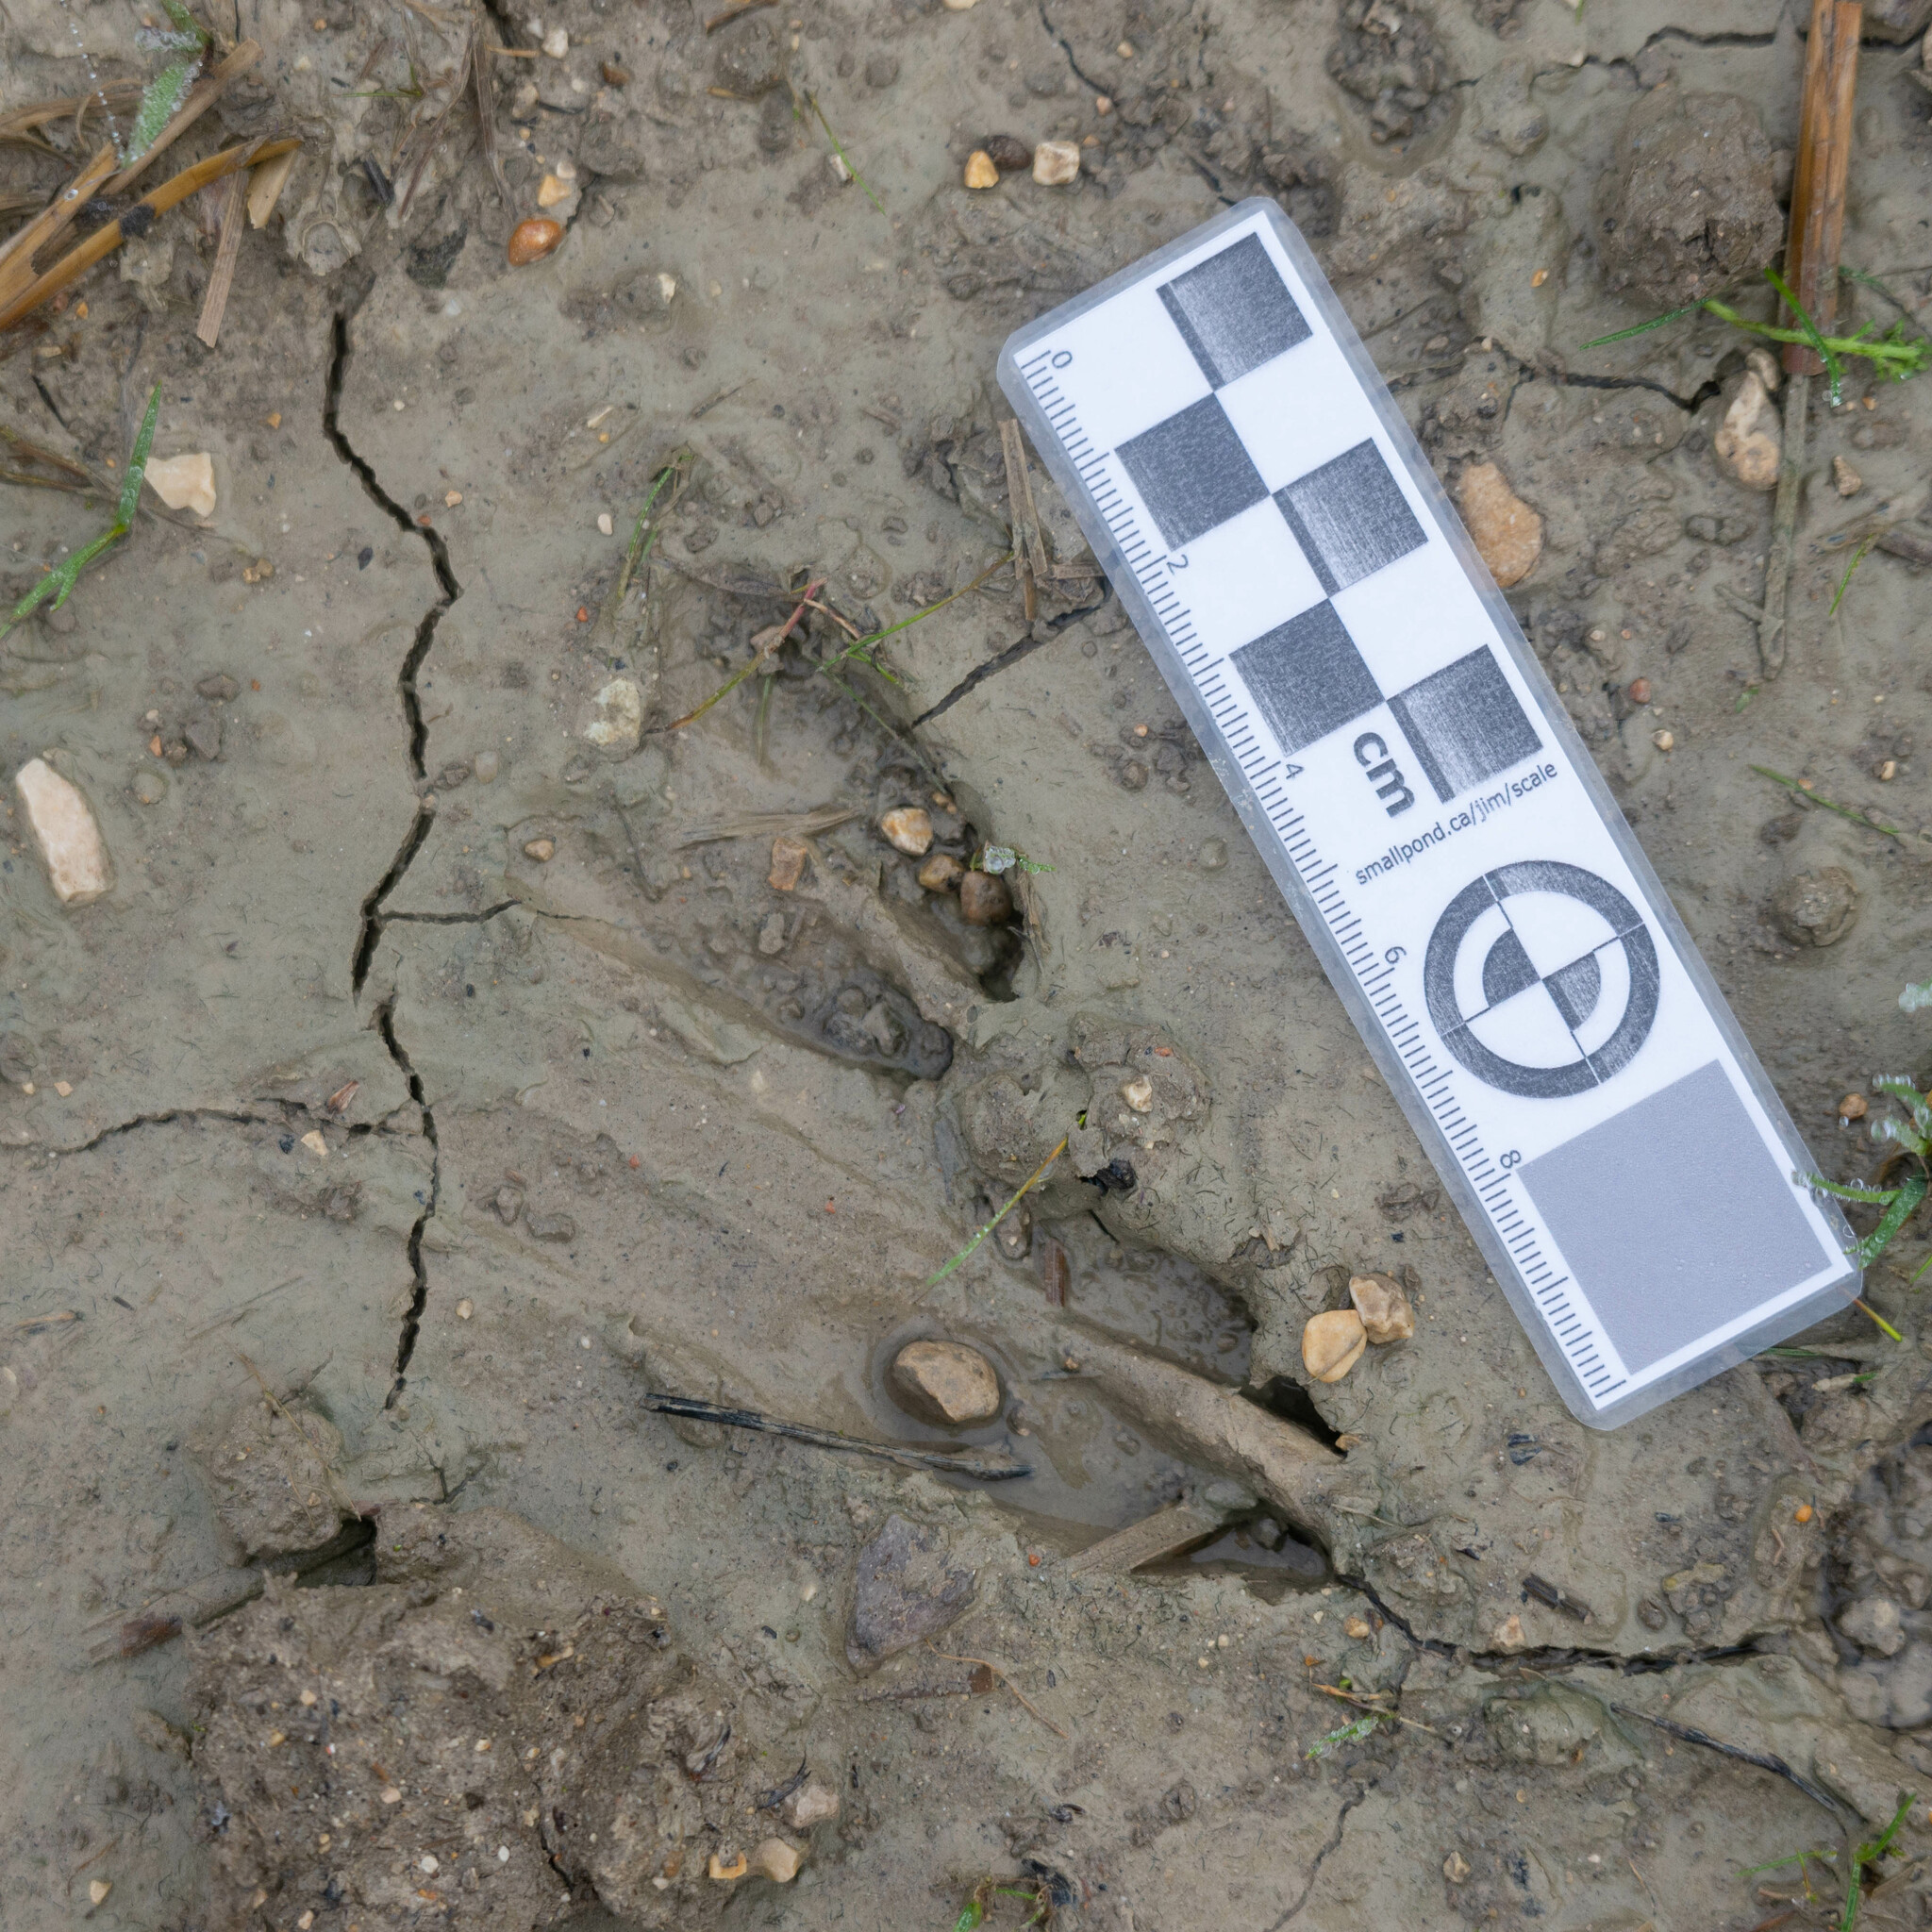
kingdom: Animalia
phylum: Chordata
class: Mammalia
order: Artiodactyla
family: Cervidae
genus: Capreolus
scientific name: Capreolus capreolus
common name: Western roe deer
